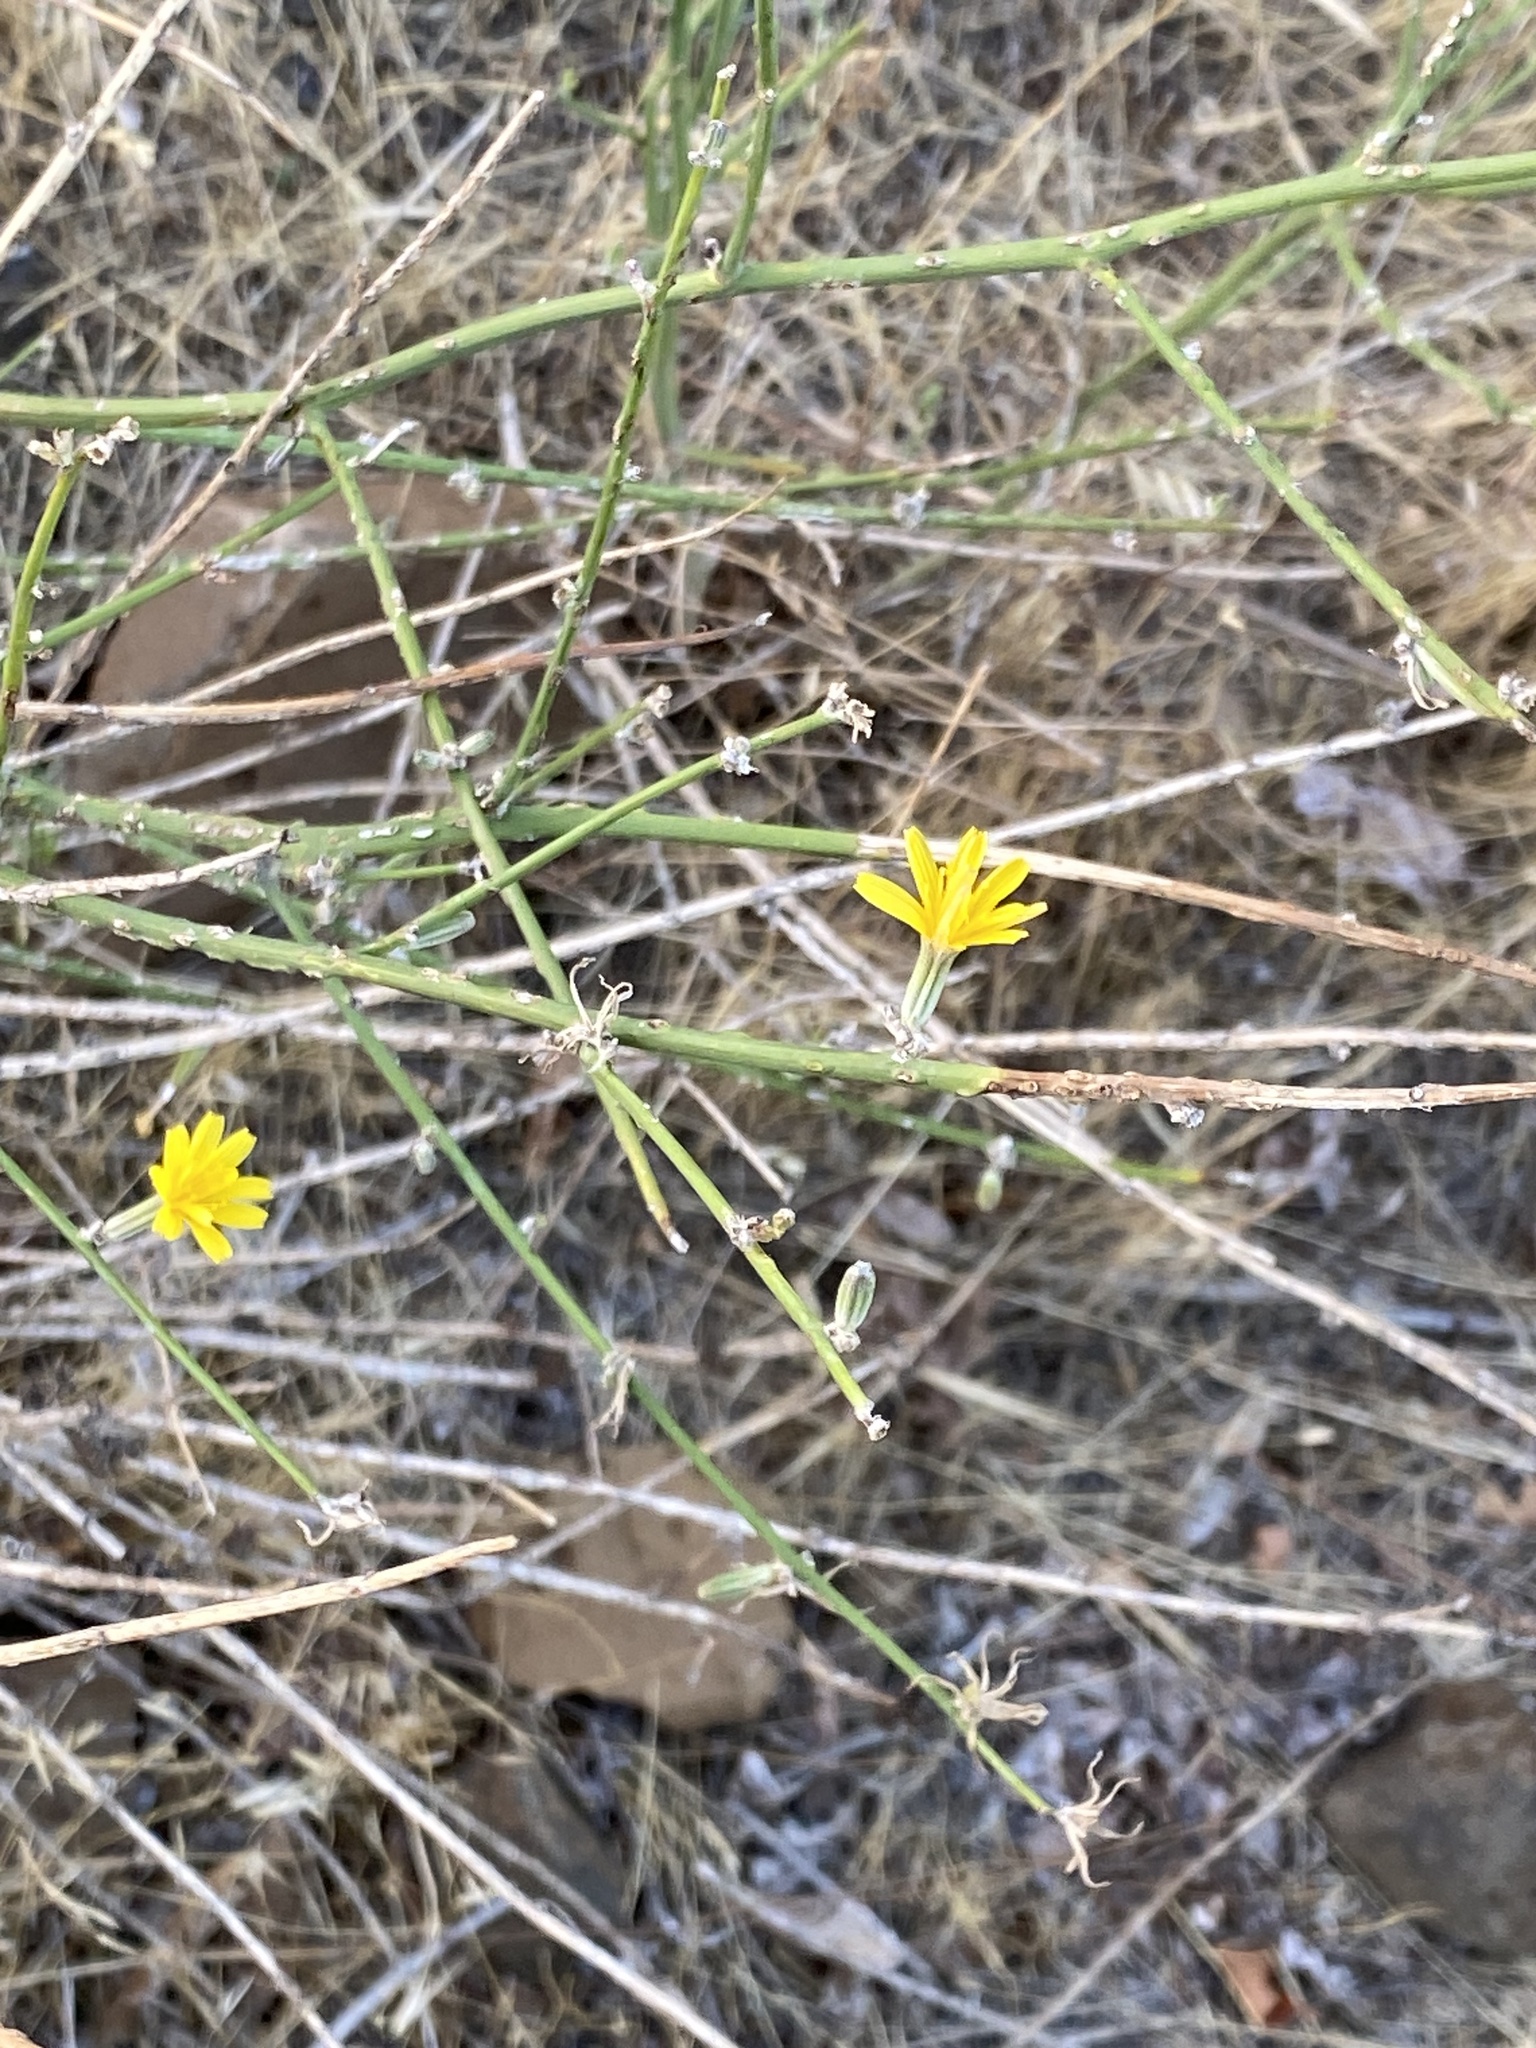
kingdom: Plantae
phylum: Tracheophyta
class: Magnoliopsida
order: Asterales
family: Asteraceae
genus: Chondrilla
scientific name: Chondrilla juncea
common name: Skeleton weed
